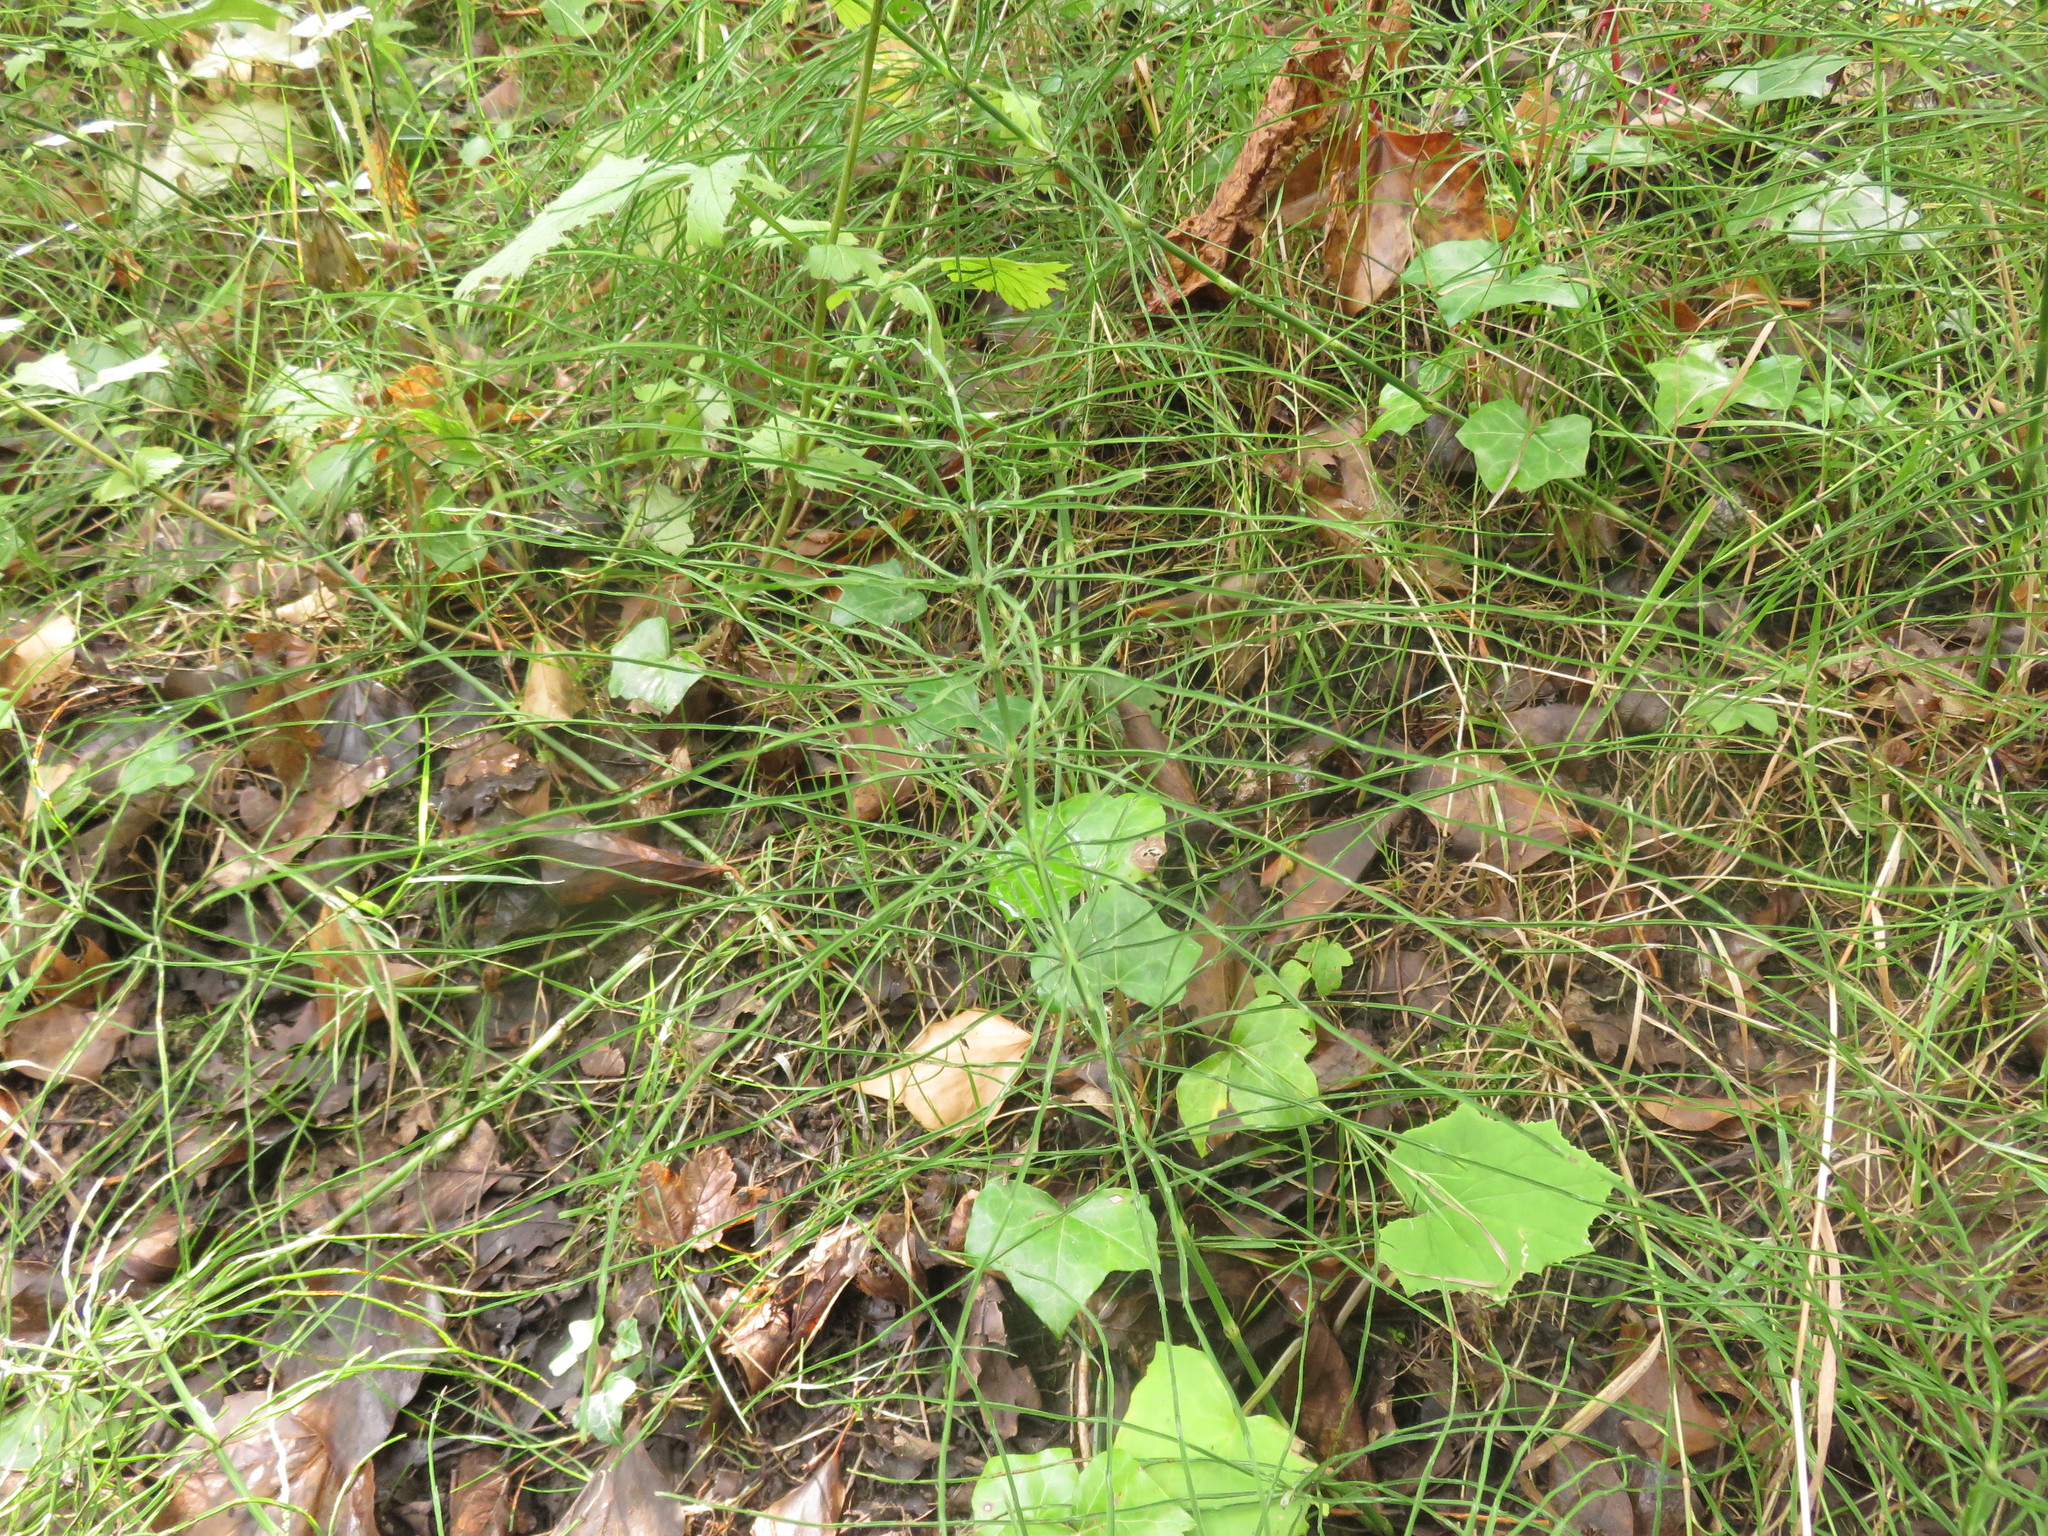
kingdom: Plantae
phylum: Tracheophyta
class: Polypodiopsida
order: Equisetales
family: Equisetaceae
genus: Equisetum
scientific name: Equisetum arvense
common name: Field horsetail
